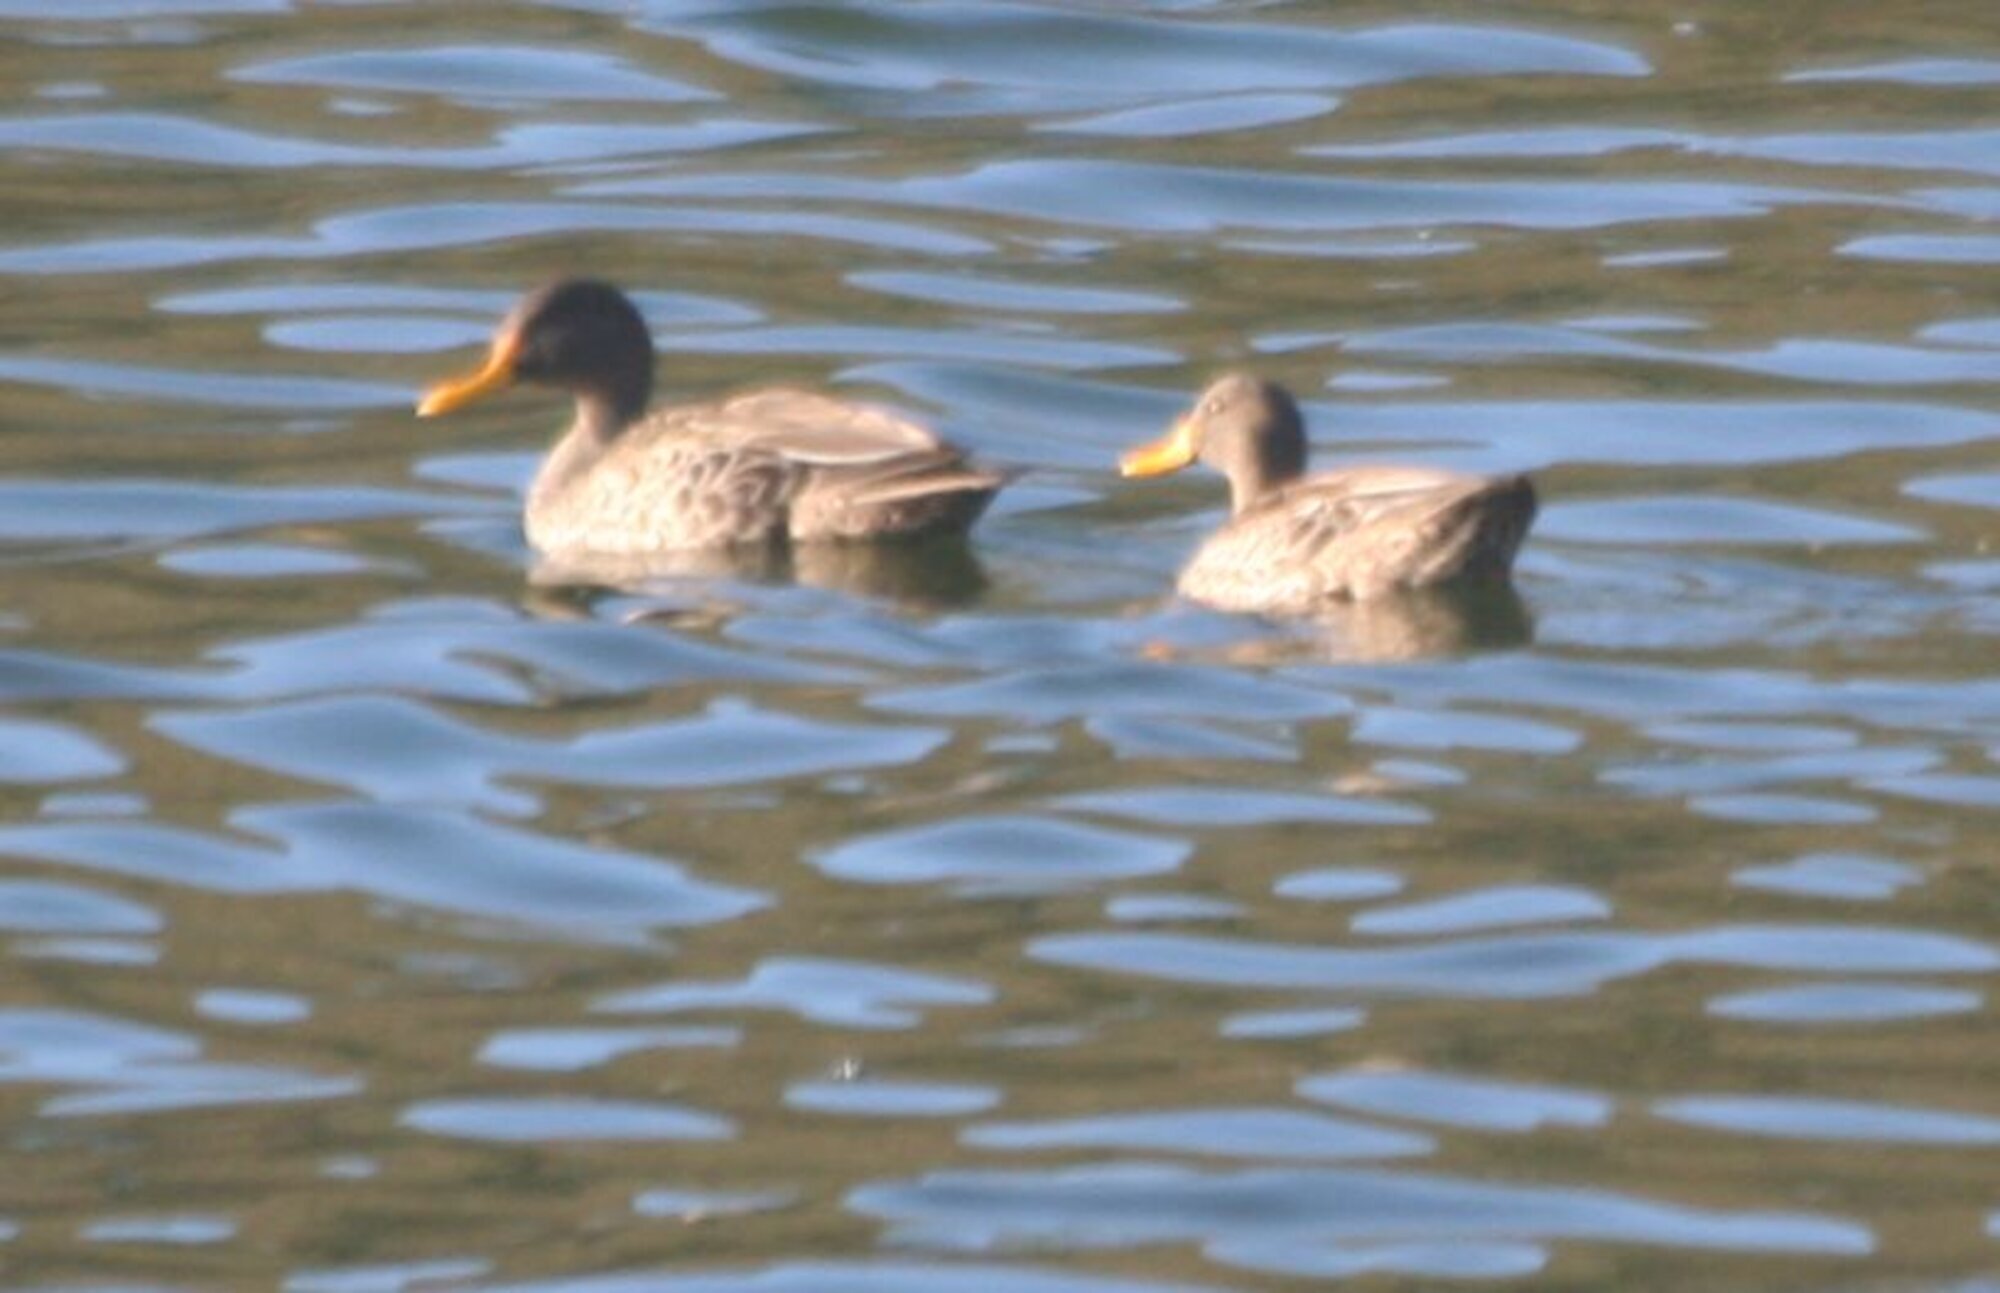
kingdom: Animalia
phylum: Chordata
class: Aves
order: Anseriformes
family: Anatidae
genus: Anas
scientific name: Anas undulata
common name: Yellow-billed duck
